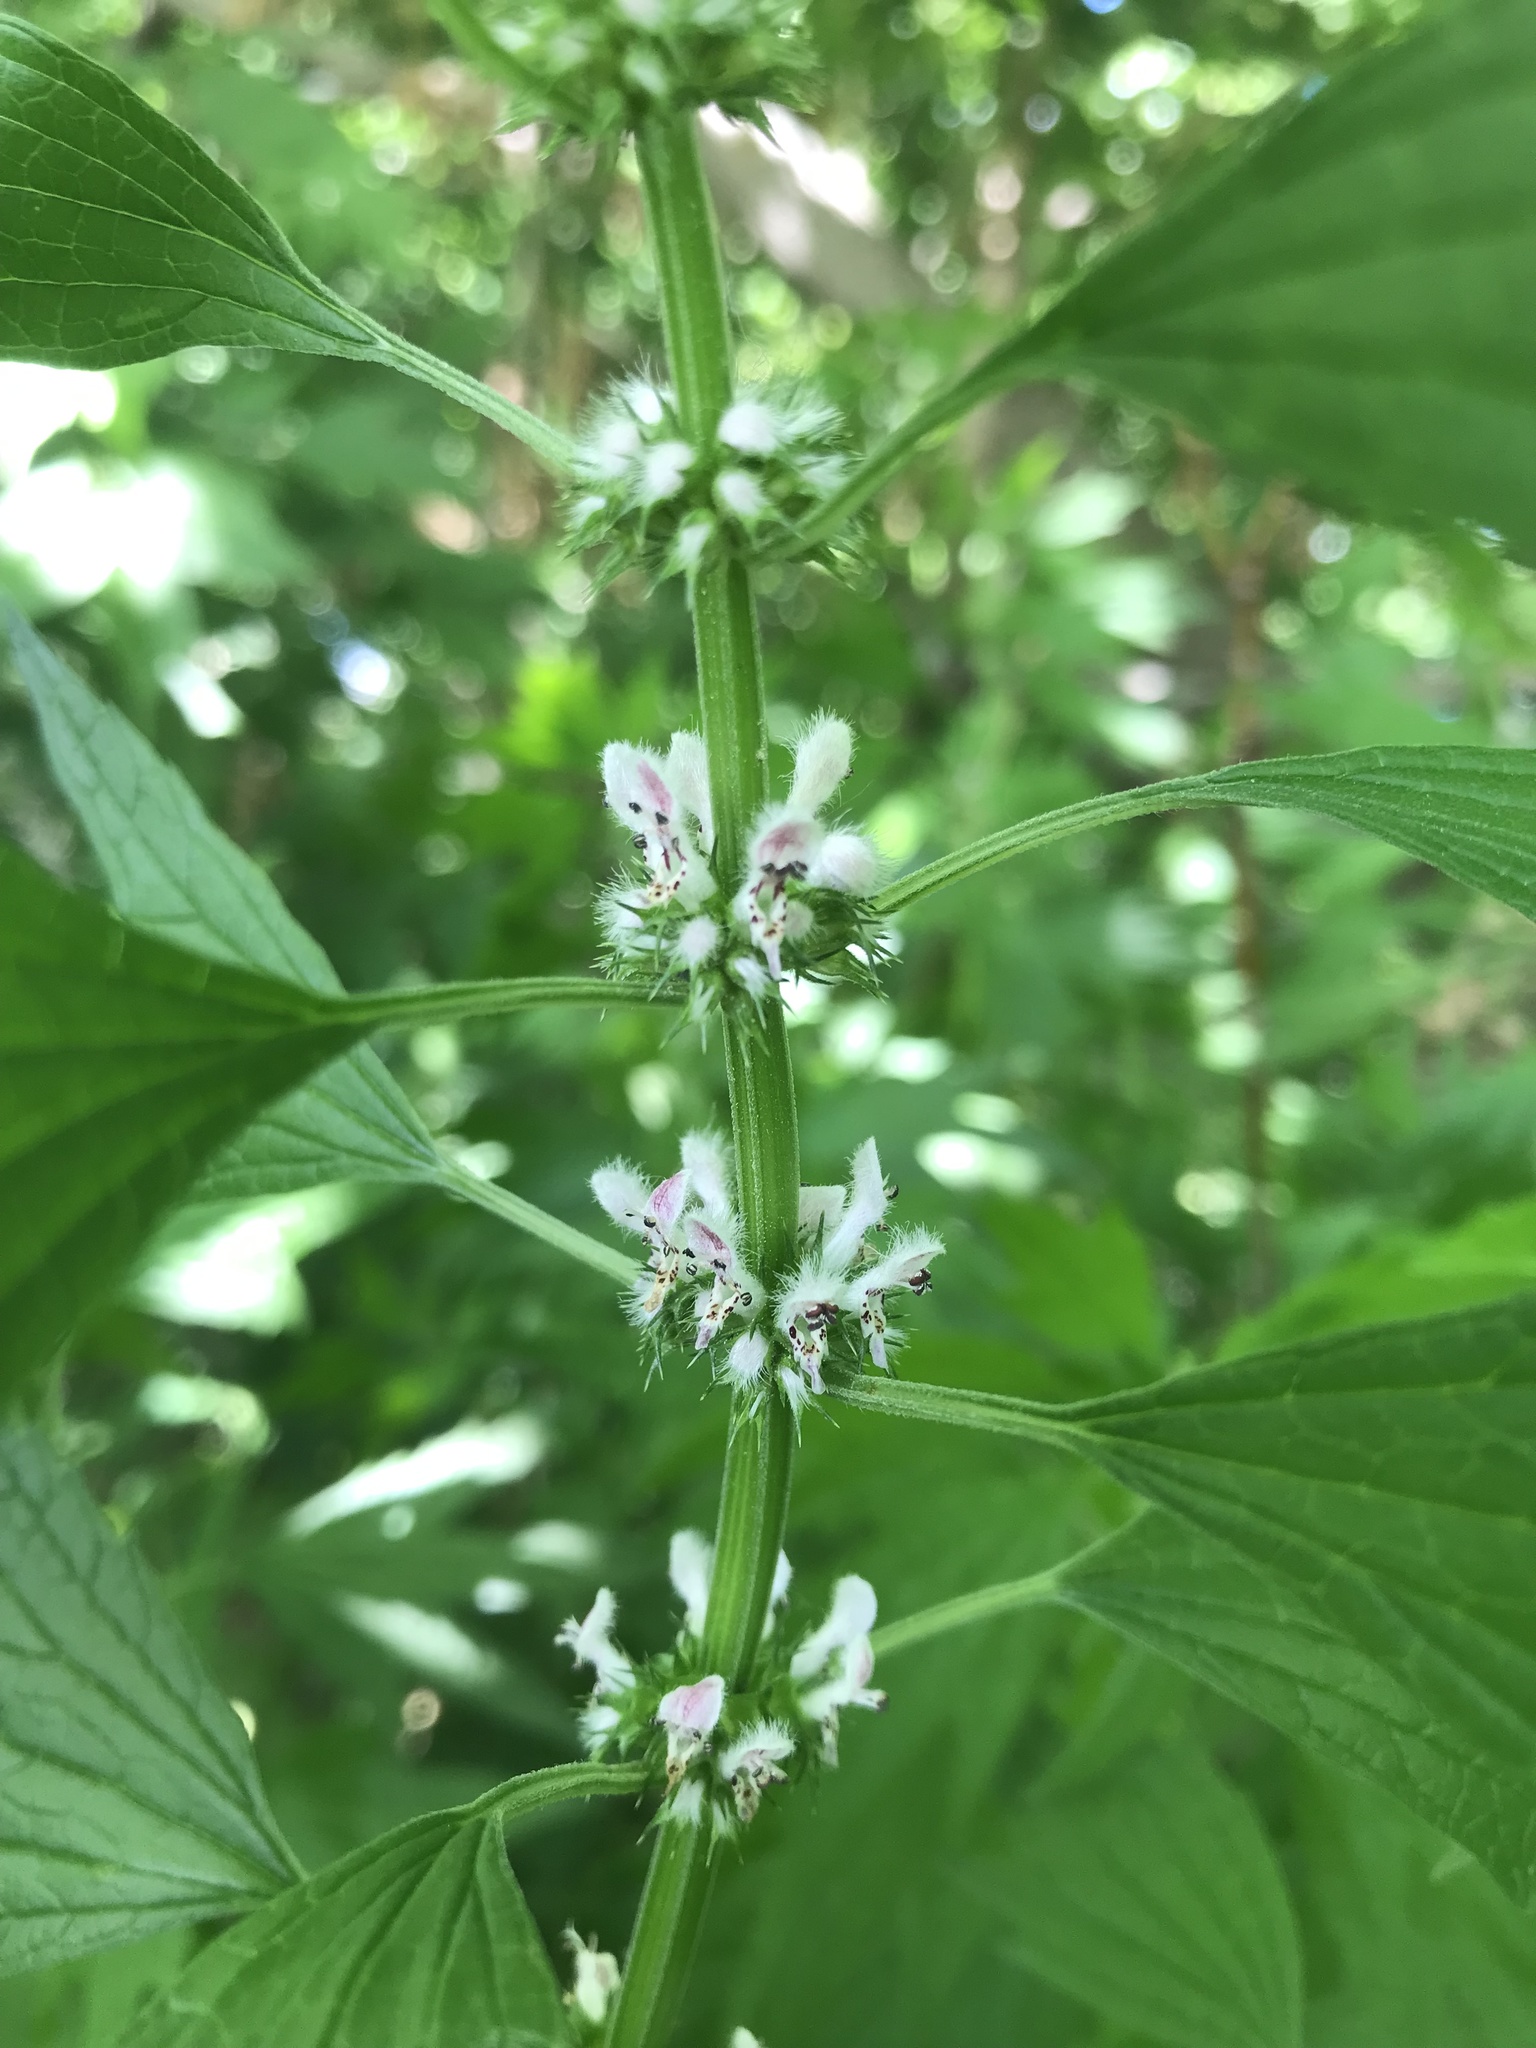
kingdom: Plantae
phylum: Tracheophyta
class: Magnoliopsida
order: Lamiales
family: Lamiaceae
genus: Leonurus
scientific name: Leonurus cardiaca
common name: Motherwort
